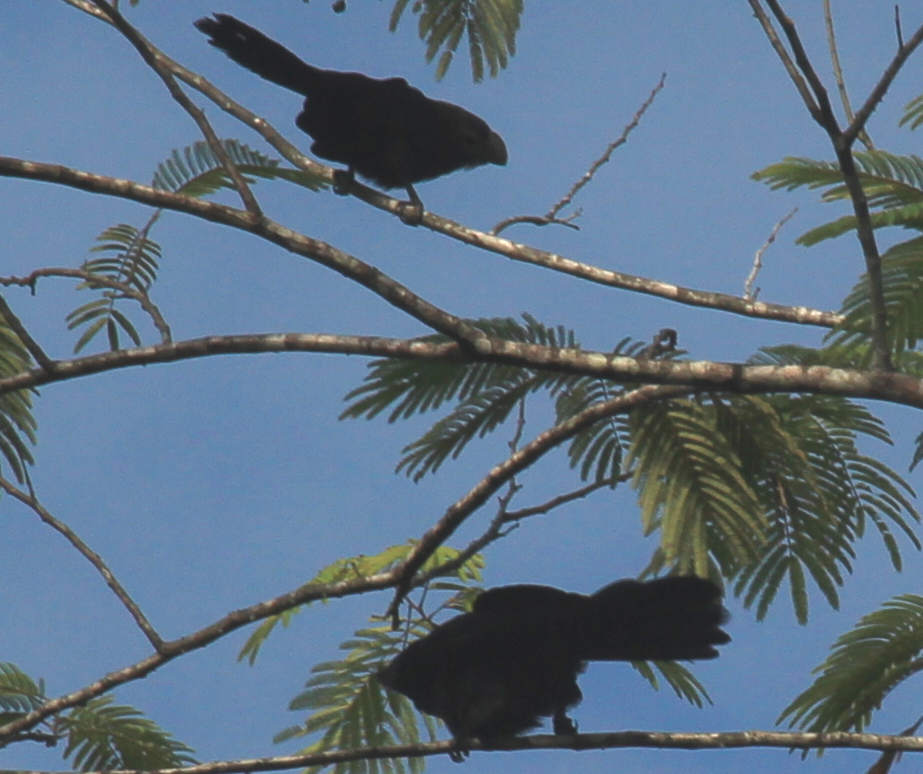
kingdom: Animalia
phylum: Chordata
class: Aves
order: Cuculiformes
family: Cuculidae
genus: Crotophaga
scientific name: Crotophaga ani
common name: Smooth-billed ani
